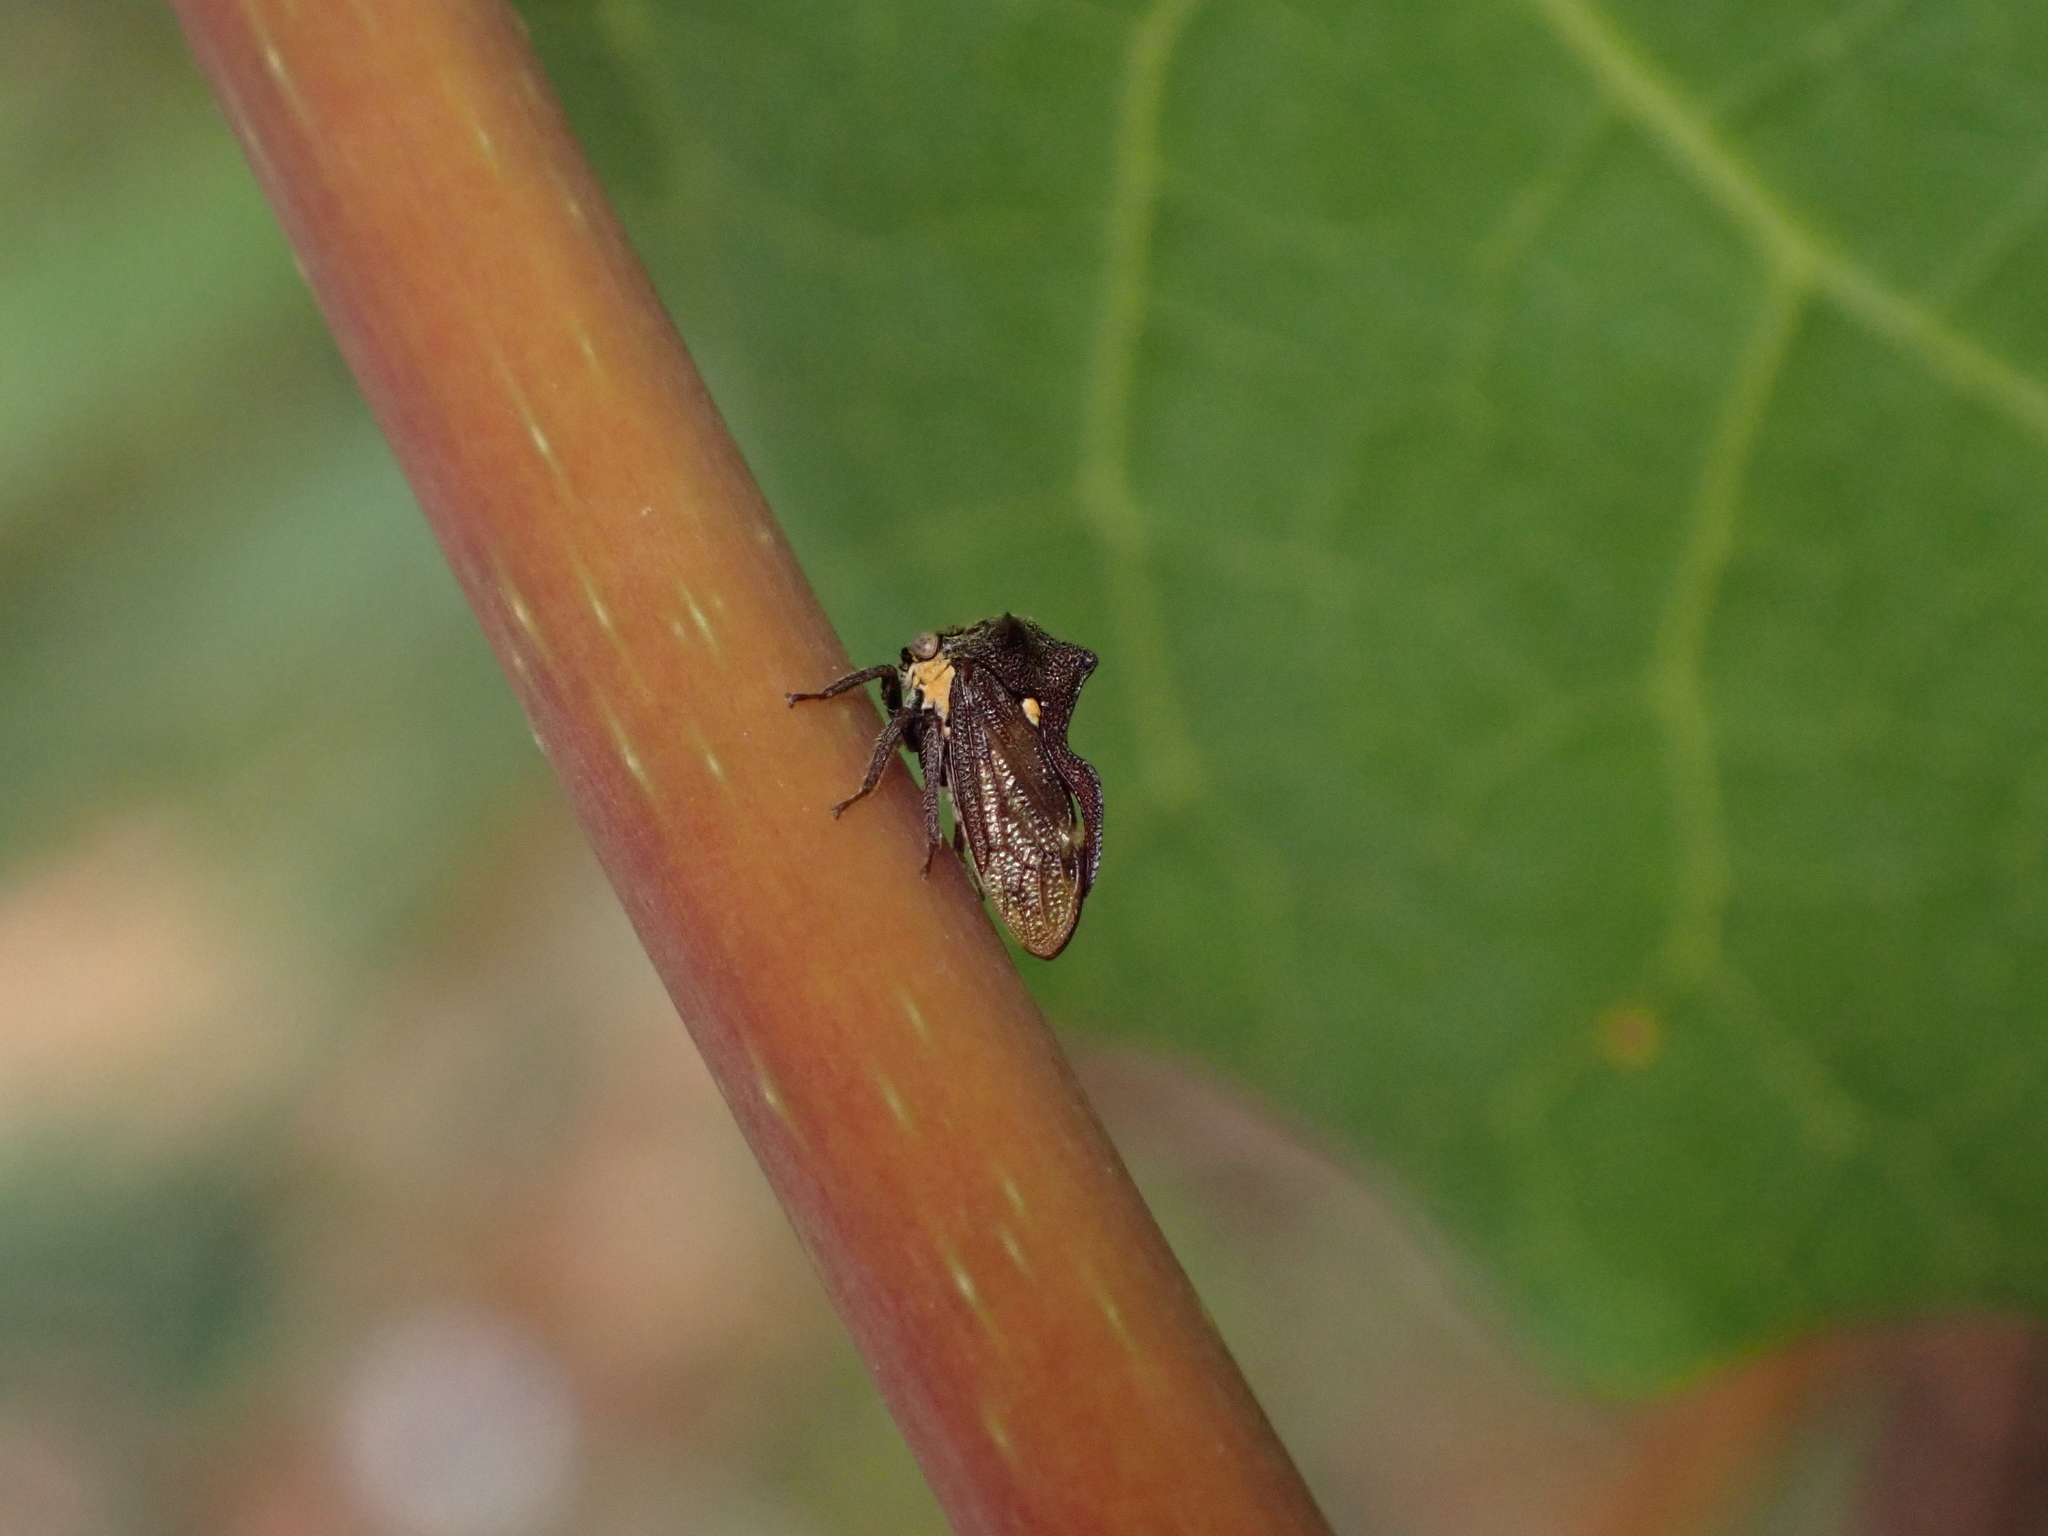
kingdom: Animalia
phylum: Arthropoda
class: Insecta
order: Hemiptera
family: Membracidae
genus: Acanthuchus
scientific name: Acanthuchus trispinifer
